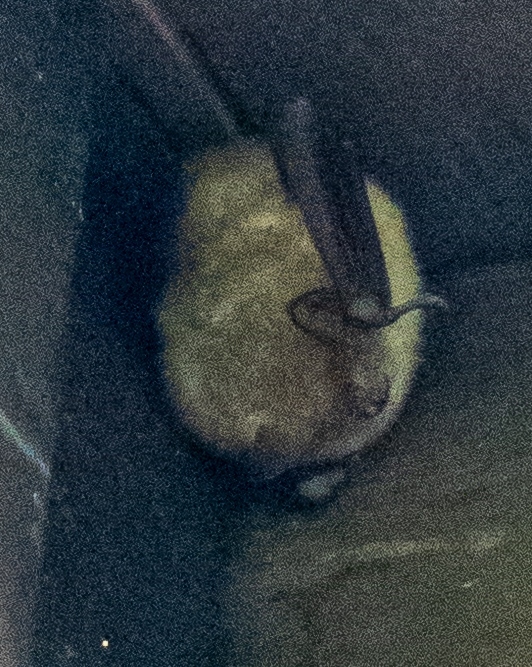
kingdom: Animalia
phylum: Chordata
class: Mammalia
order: Chiroptera
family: Vespertilionidae
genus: Myotis
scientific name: Myotis emarginatus
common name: Geoffroy's bat
